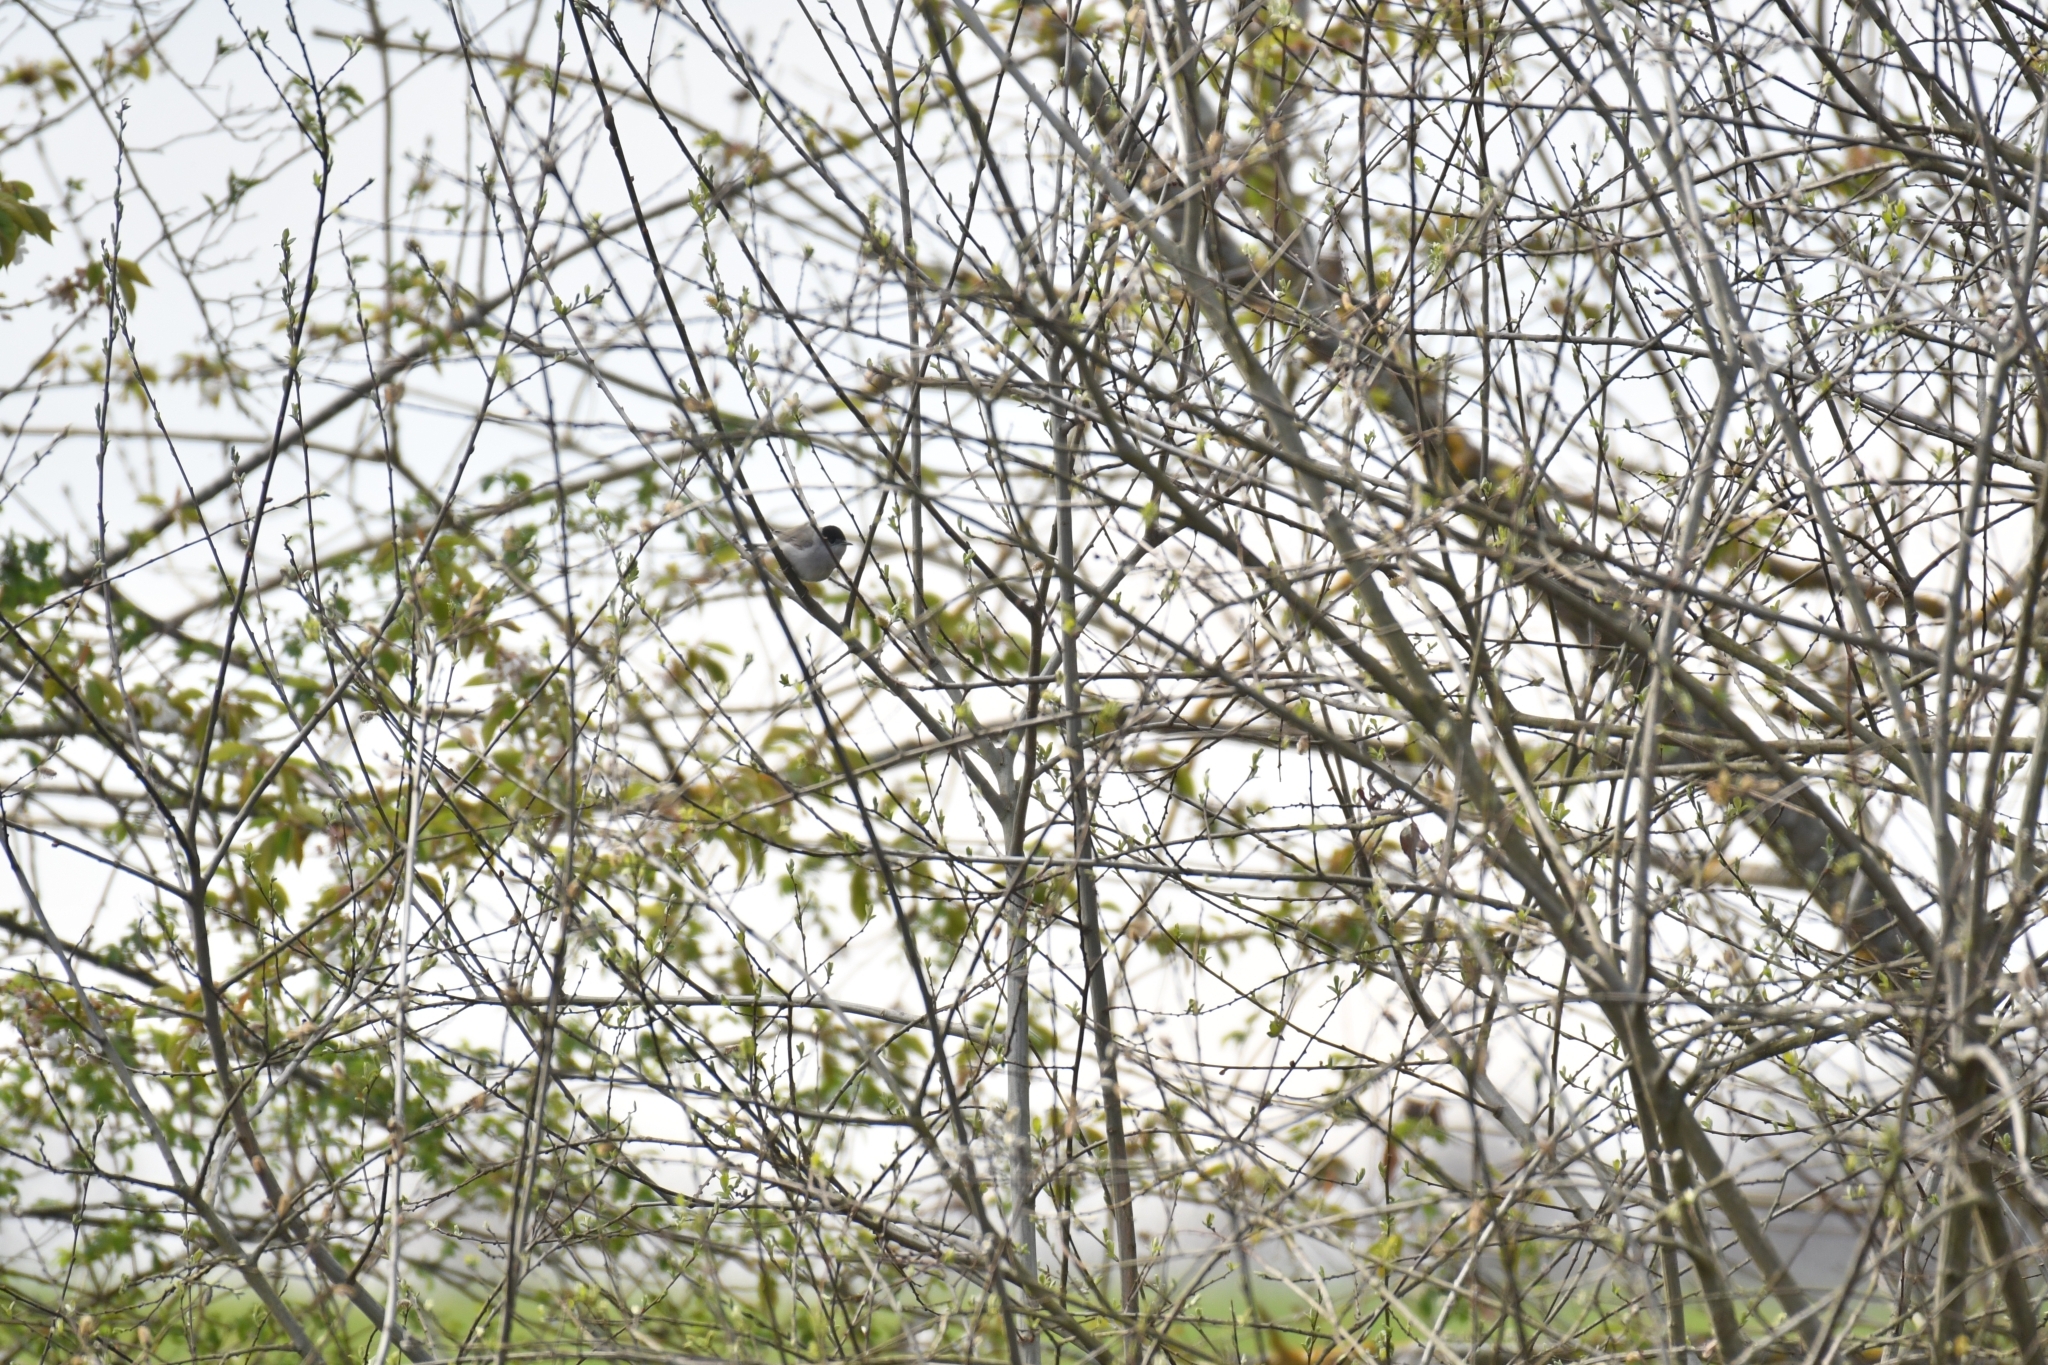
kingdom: Animalia
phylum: Chordata
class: Aves
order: Passeriformes
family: Sylviidae
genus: Sylvia
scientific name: Sylvia atricapilla
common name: Eurasian blackcap
